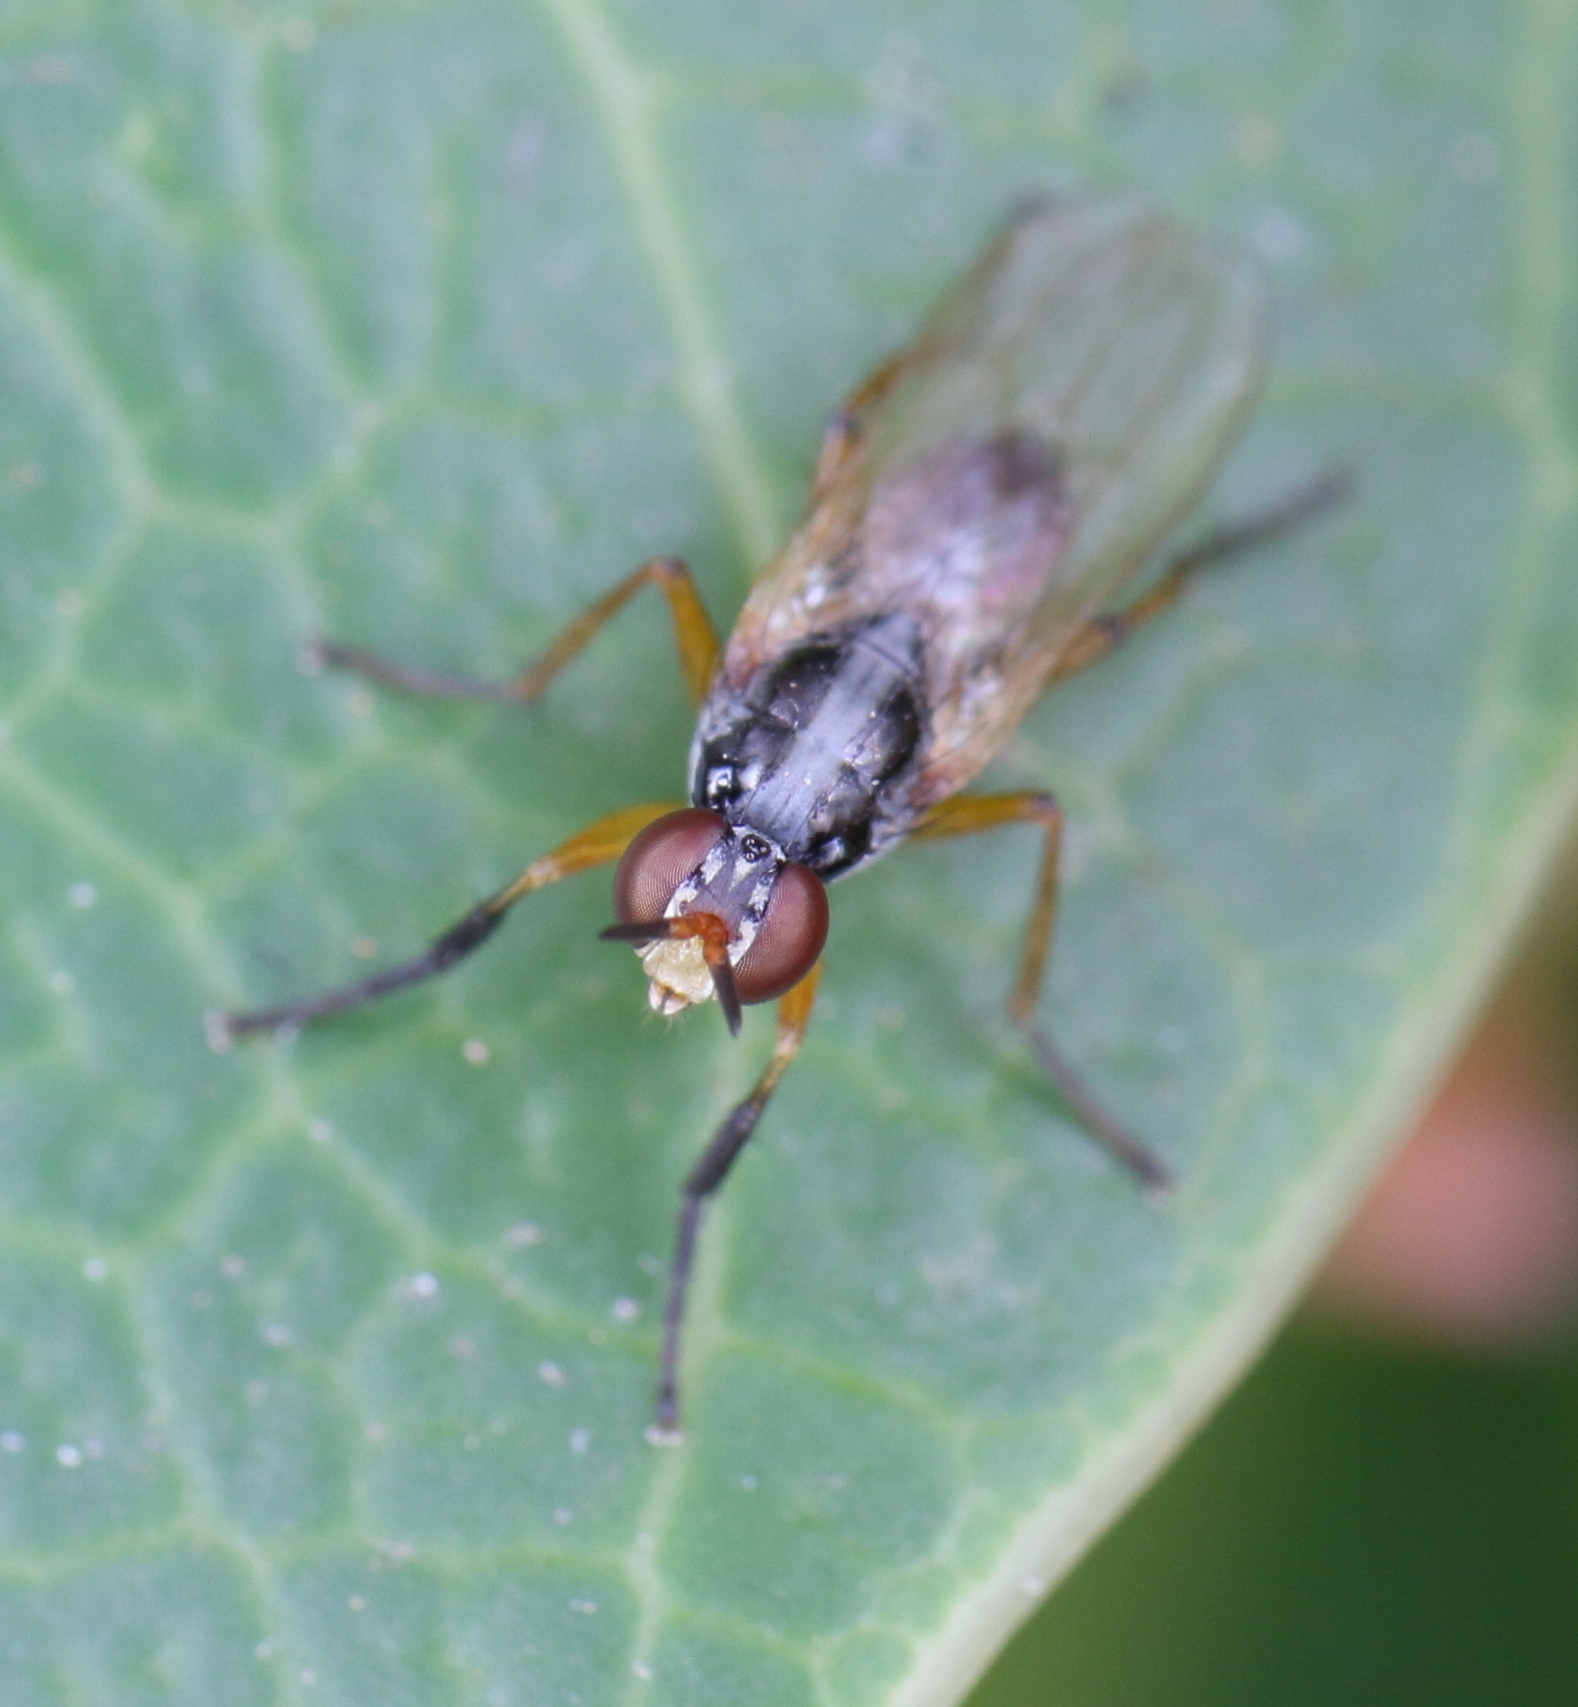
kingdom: Animalia
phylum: Arthropoda
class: Insecta
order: Diptera
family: Muscidae
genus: Anaphalantus
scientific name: Anaphalantus longicornis
